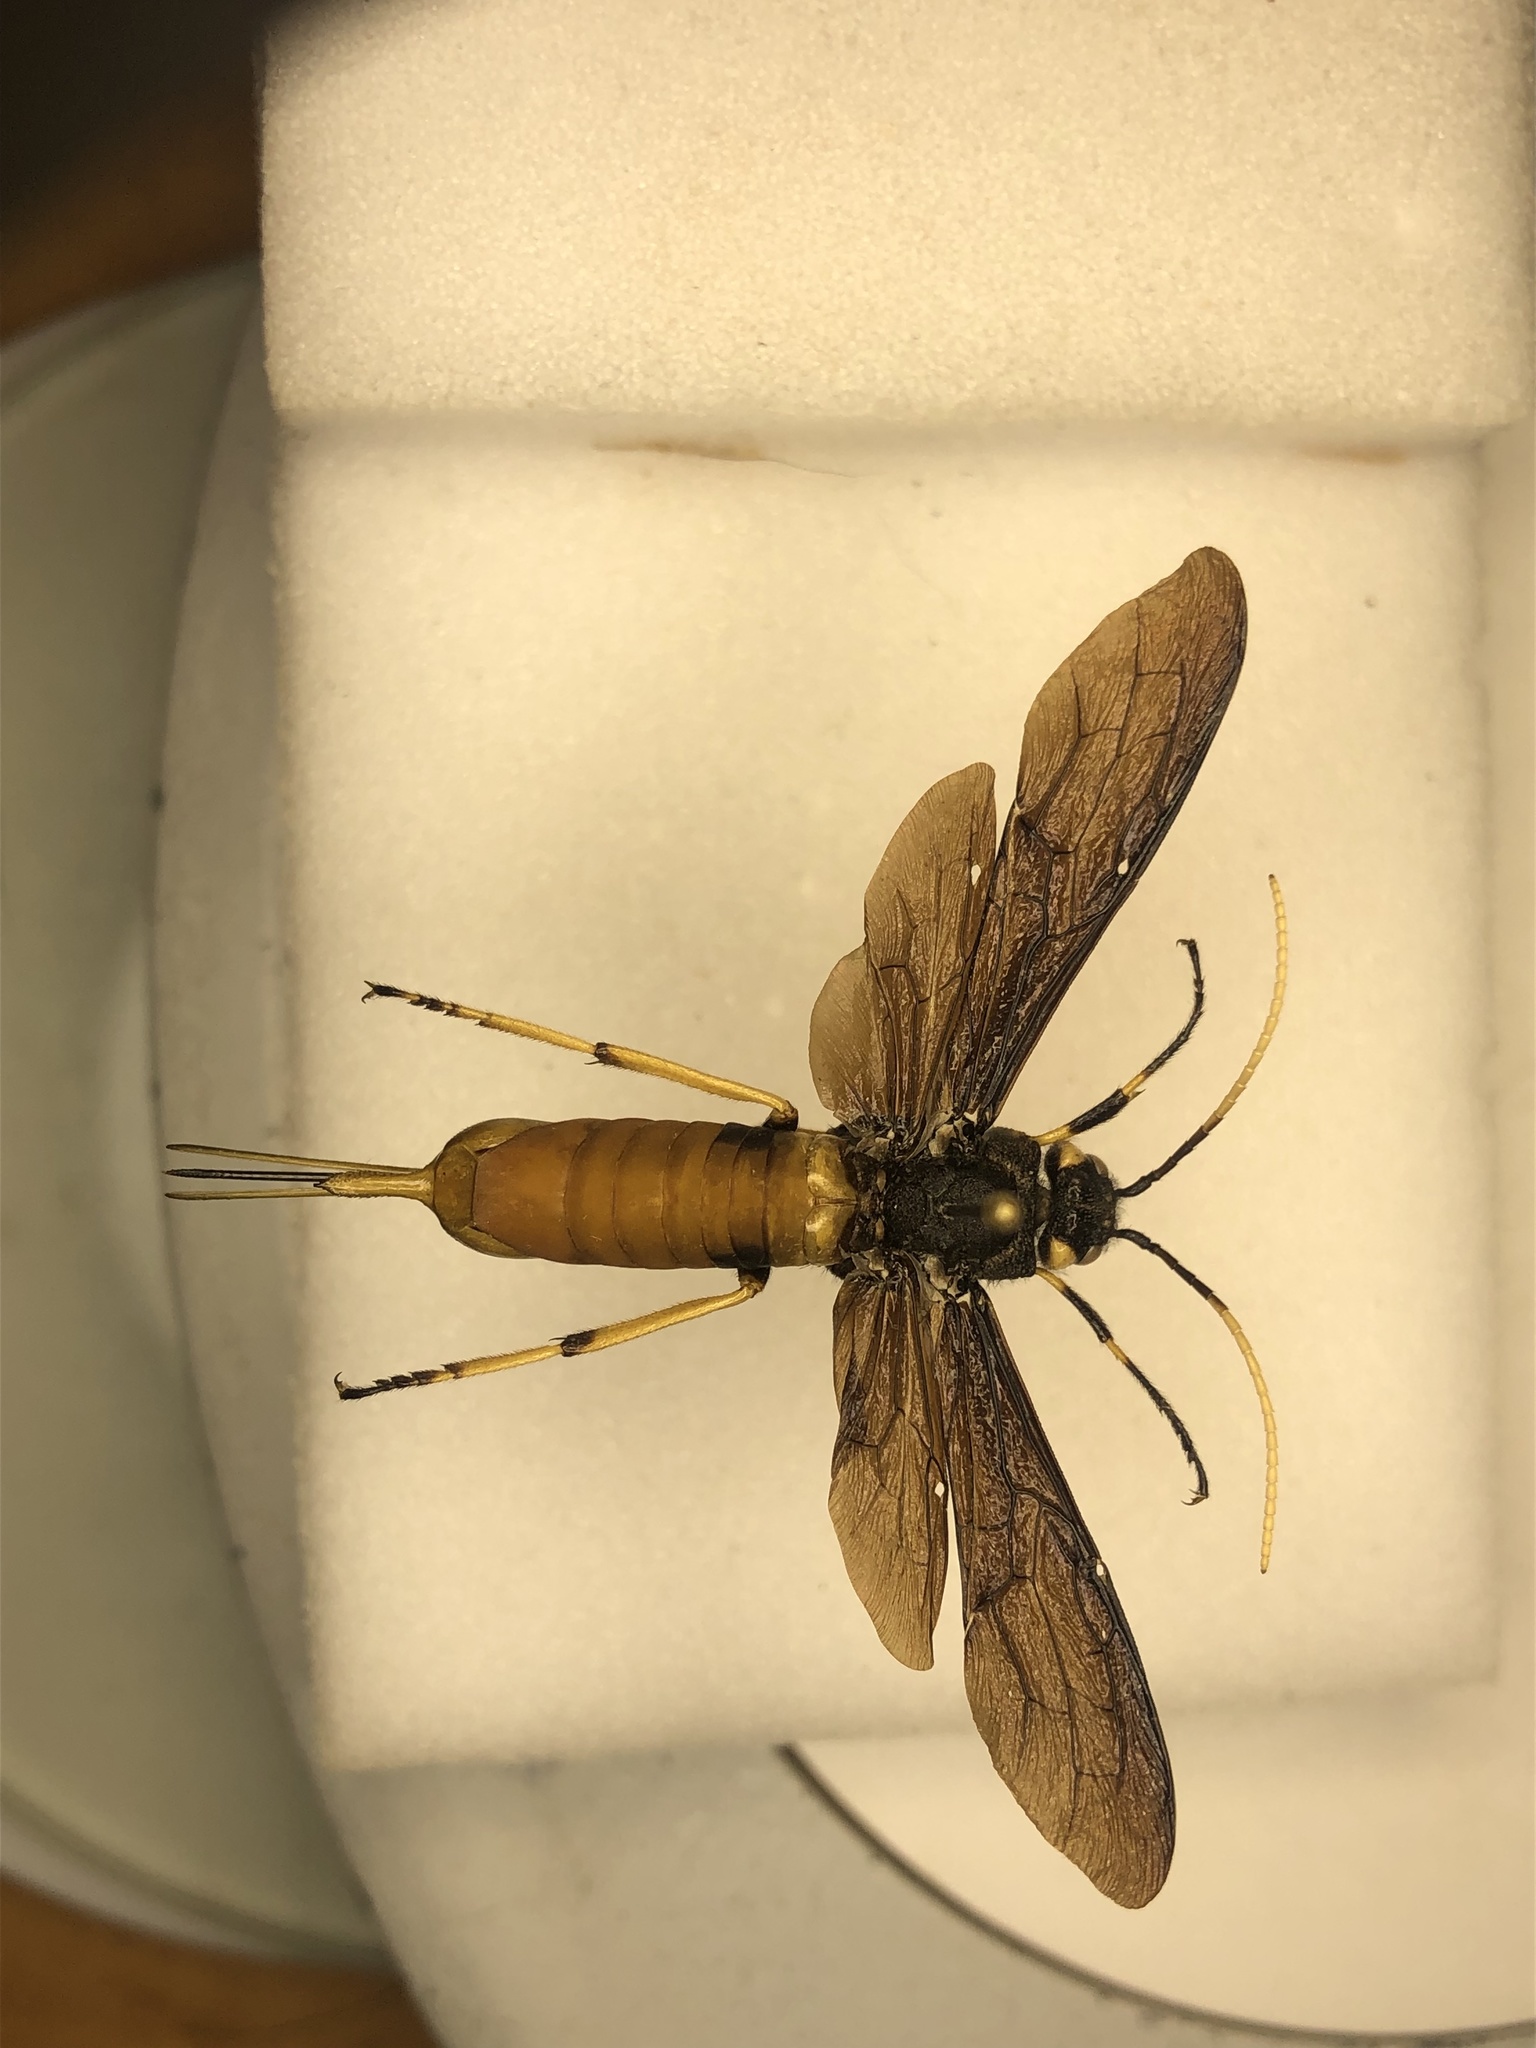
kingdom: Animalia
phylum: Arthropoda
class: Insecta
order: Hymenoptera
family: Siricidae
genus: Urocerus
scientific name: Urocerus cressoni
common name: Black-and-red horntail
